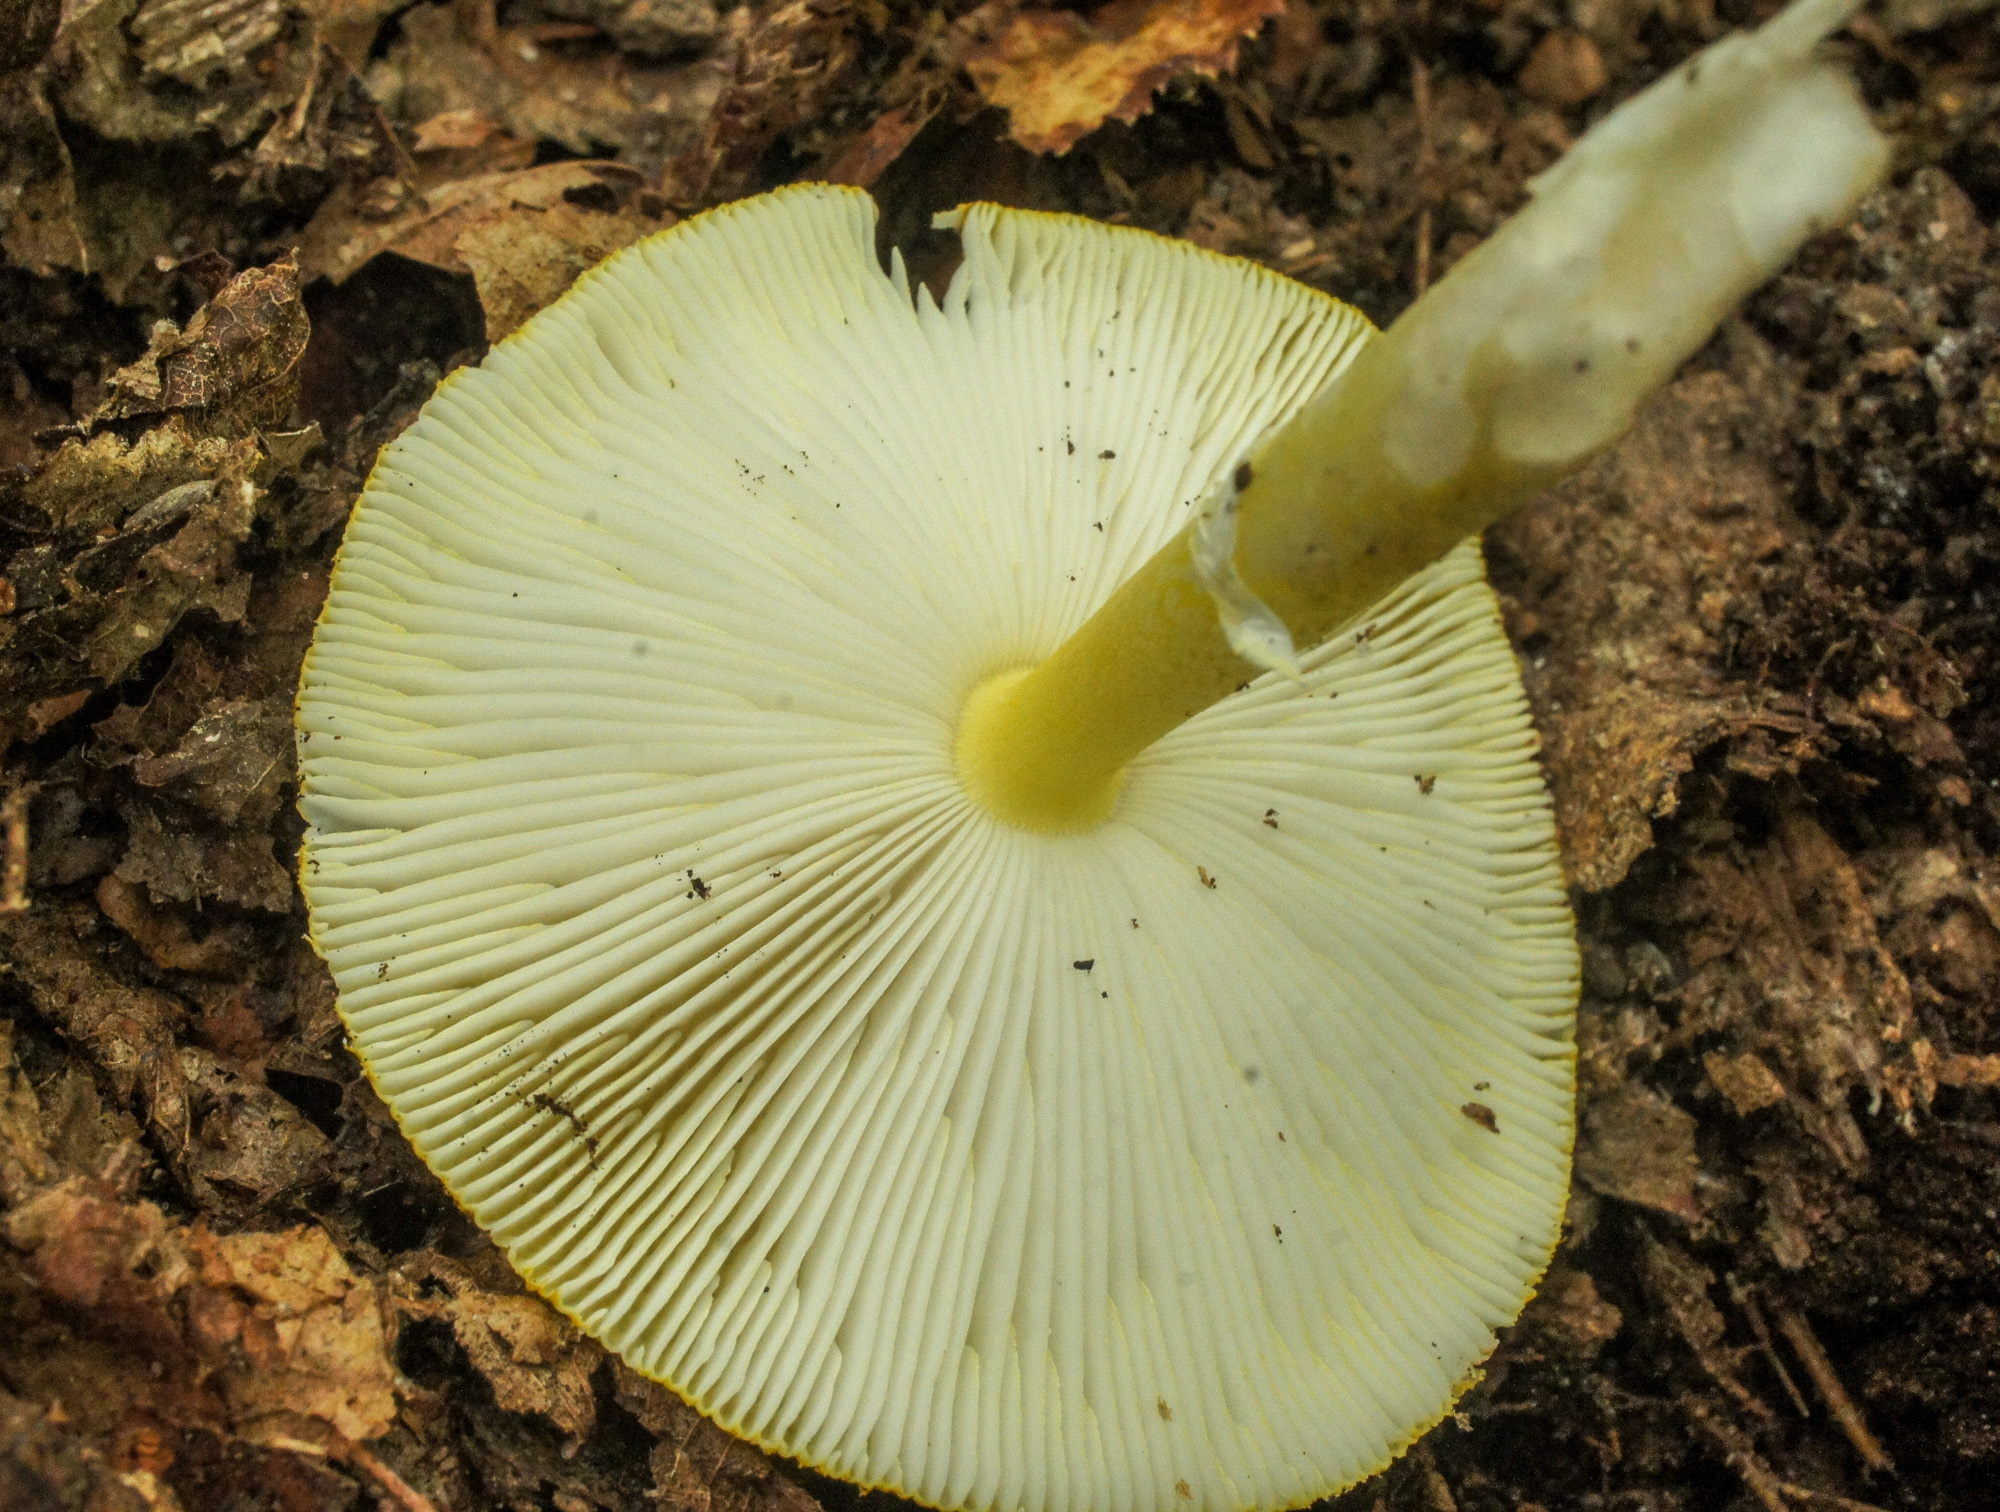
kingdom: Fungi
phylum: Basidiomycota
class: Agaricomycetes
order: Agaricales
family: Amanitaceae
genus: Amanita
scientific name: Amanita flavoconia
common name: Yellow patches
